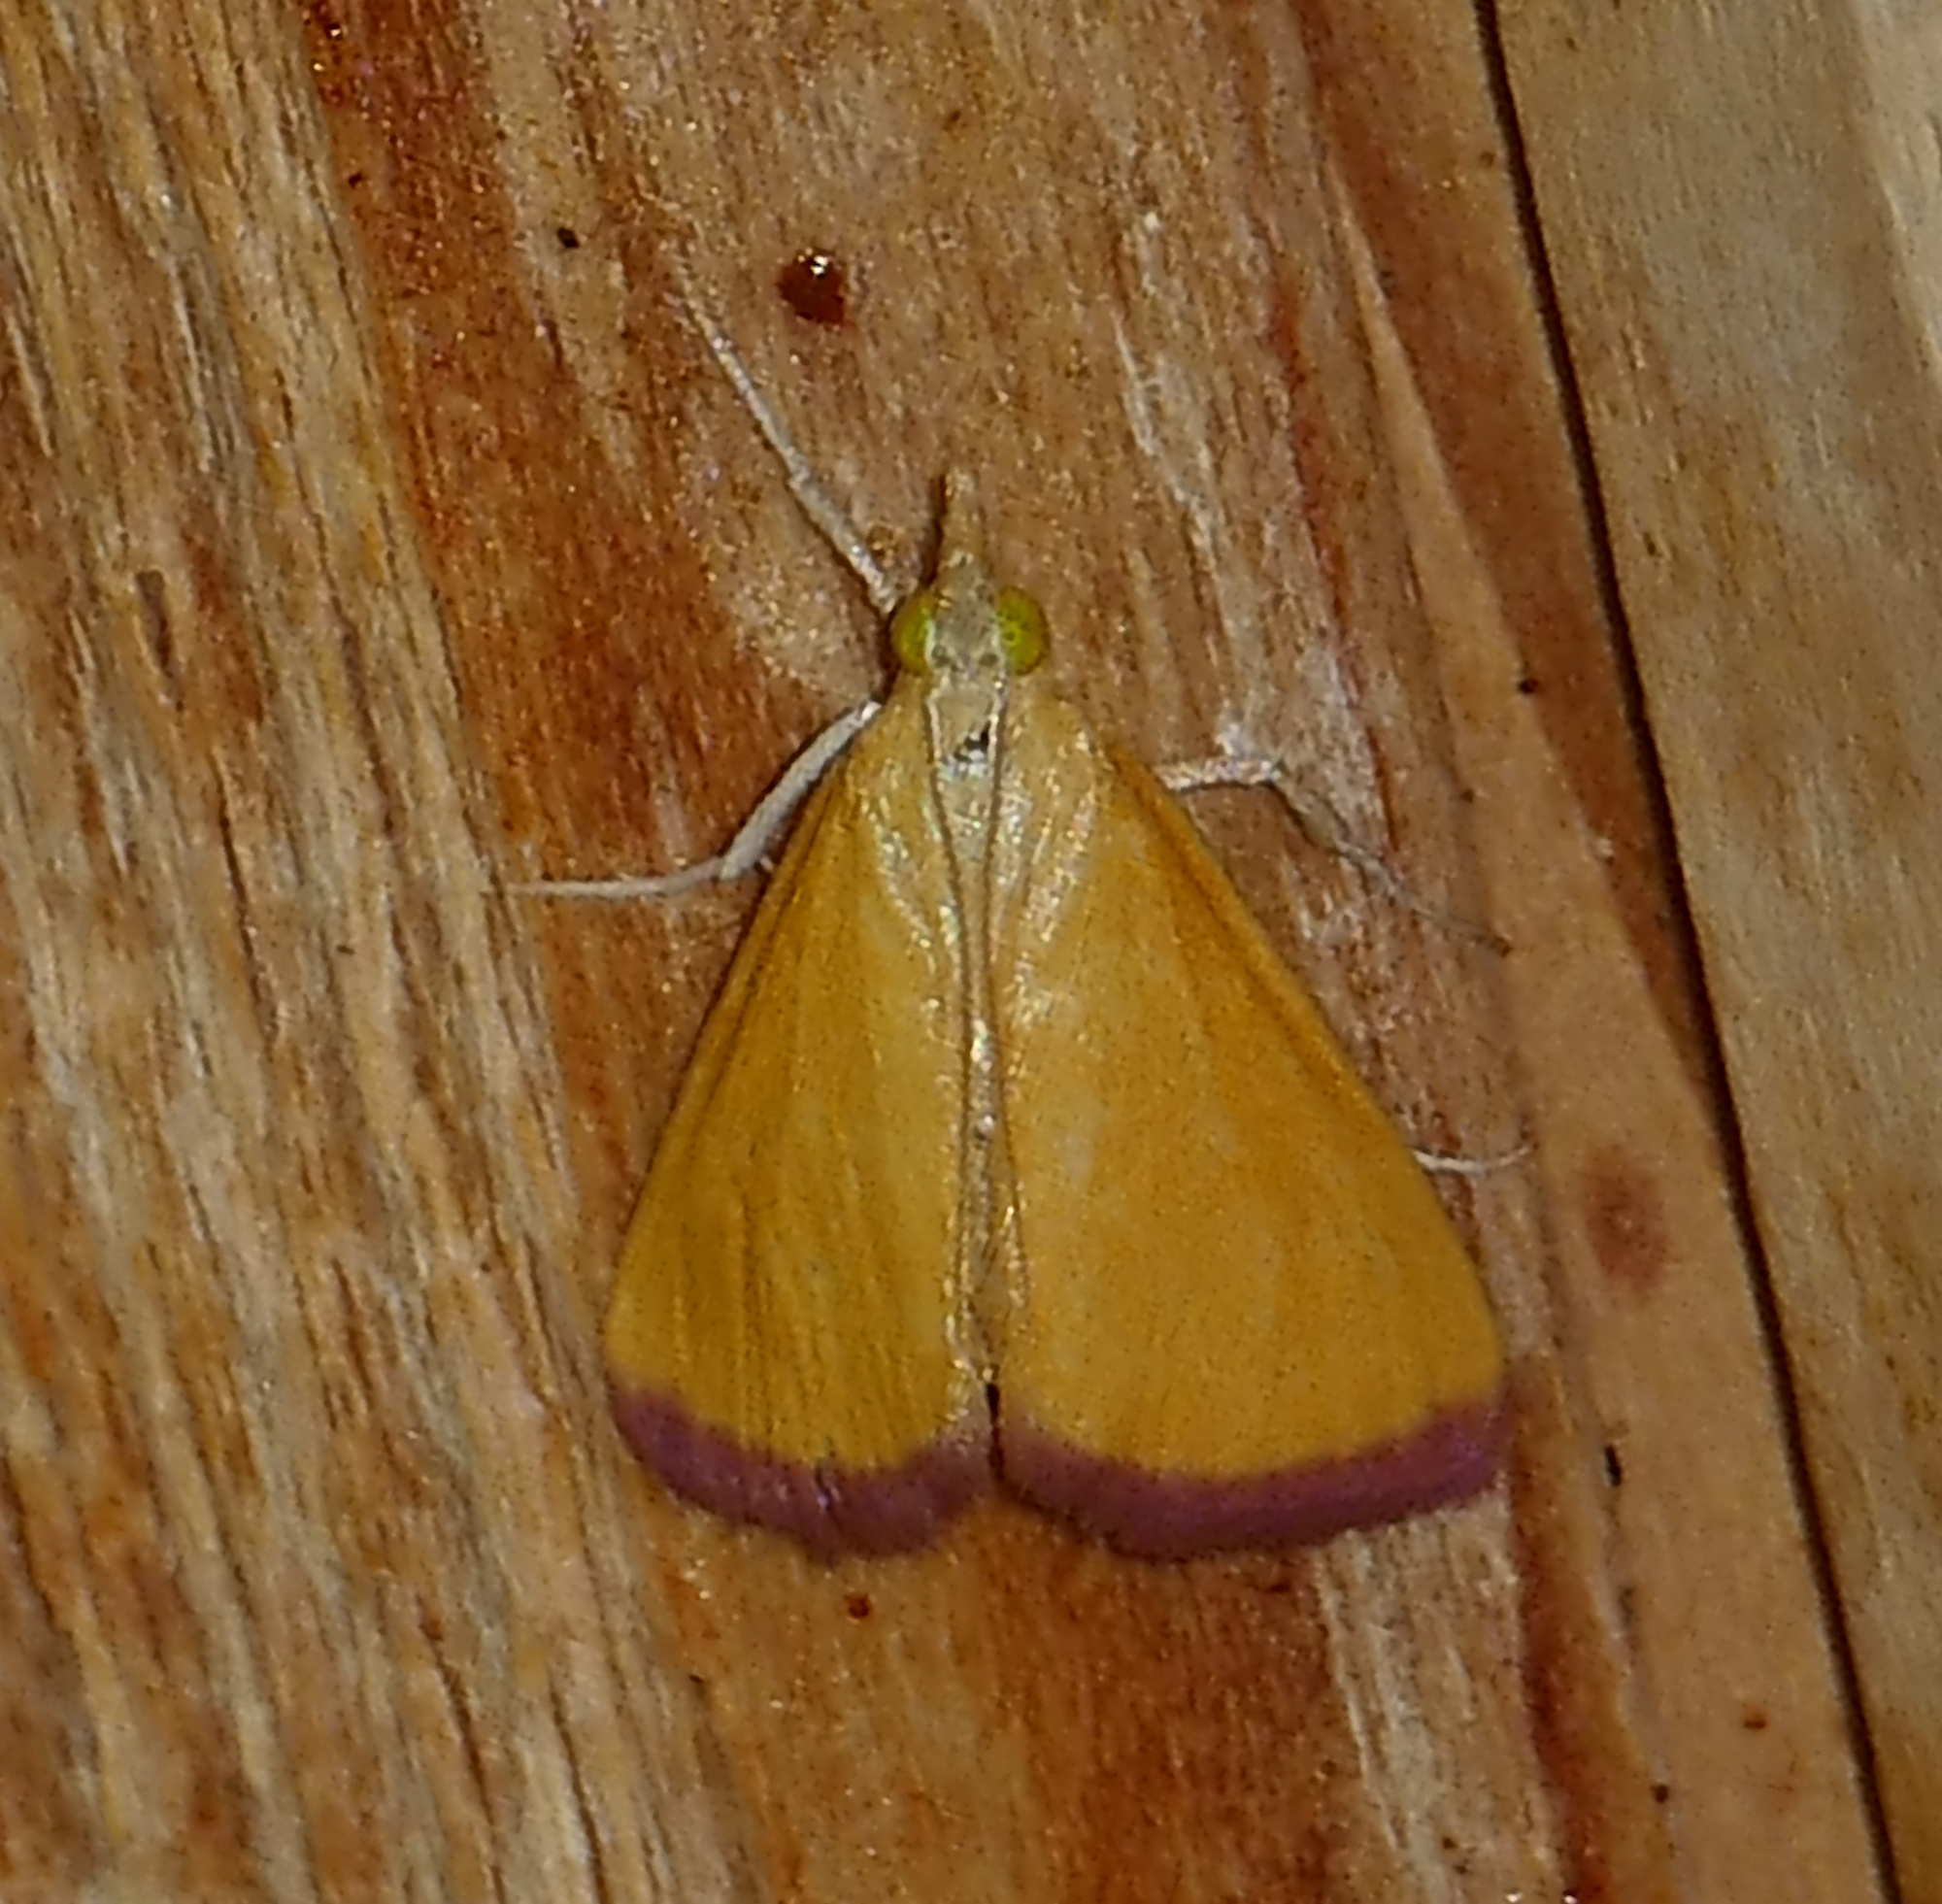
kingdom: Animalia
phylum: Arthropoda
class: Insecta
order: Lepidoptera
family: Crambidae
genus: Xanthostege
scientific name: Xanthostege plana
